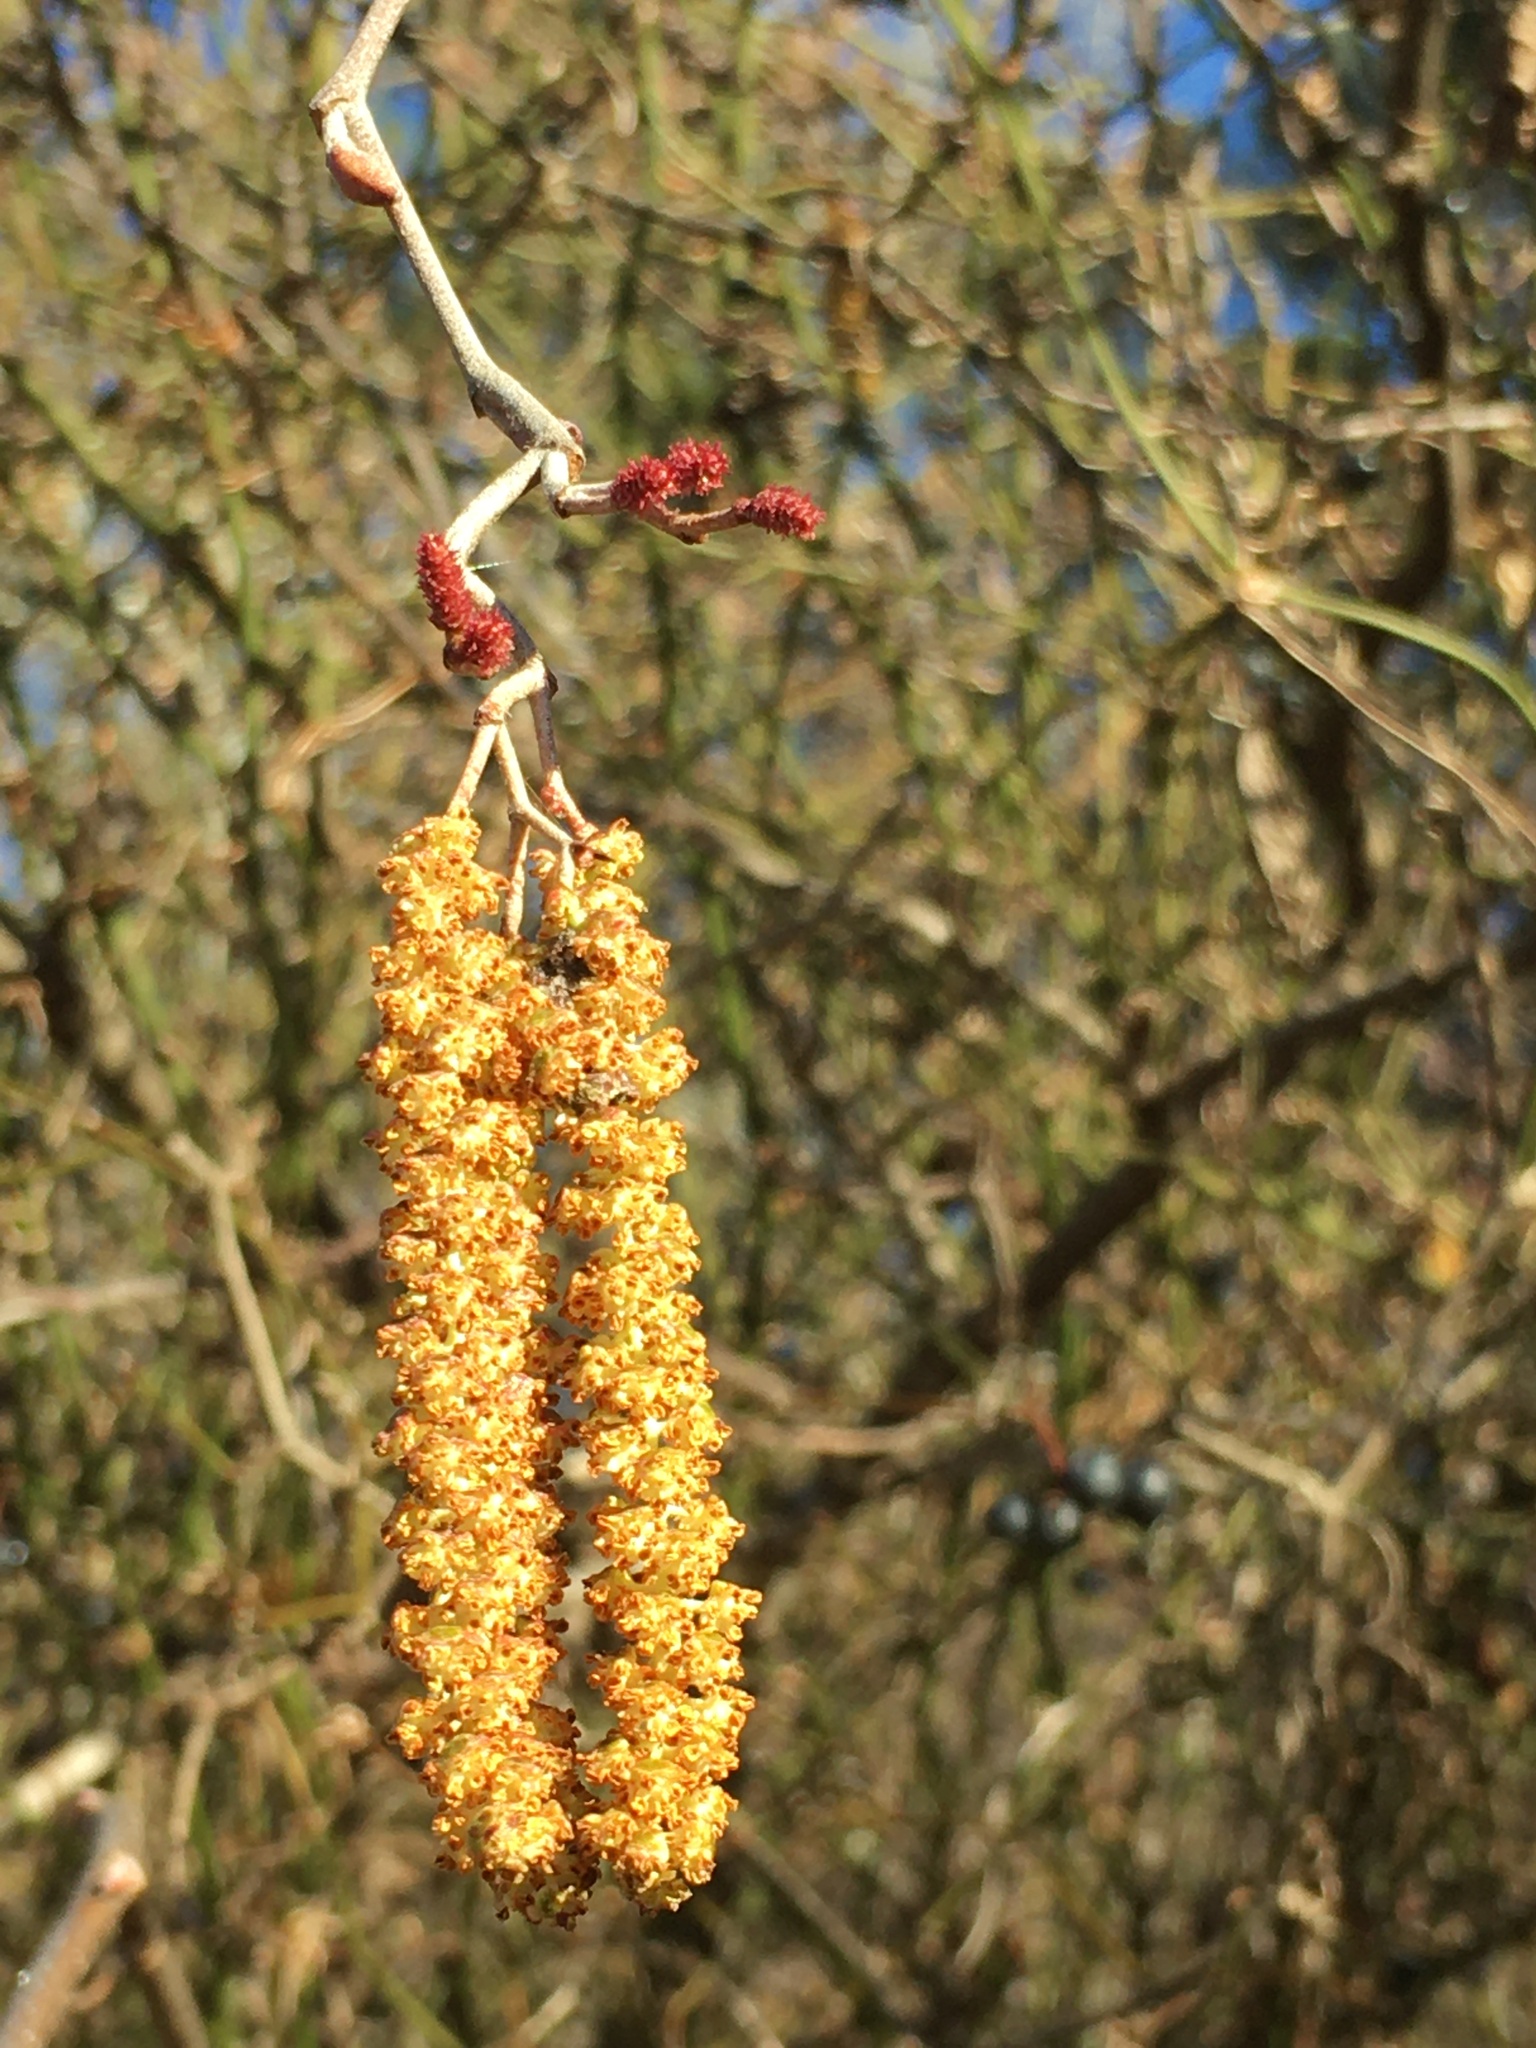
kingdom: Plantae
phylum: Tracheophyta
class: Magnoliopsida
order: Fagales
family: Betulaceae
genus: Alnus
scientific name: Alnus serrulata
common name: Hazel alder
